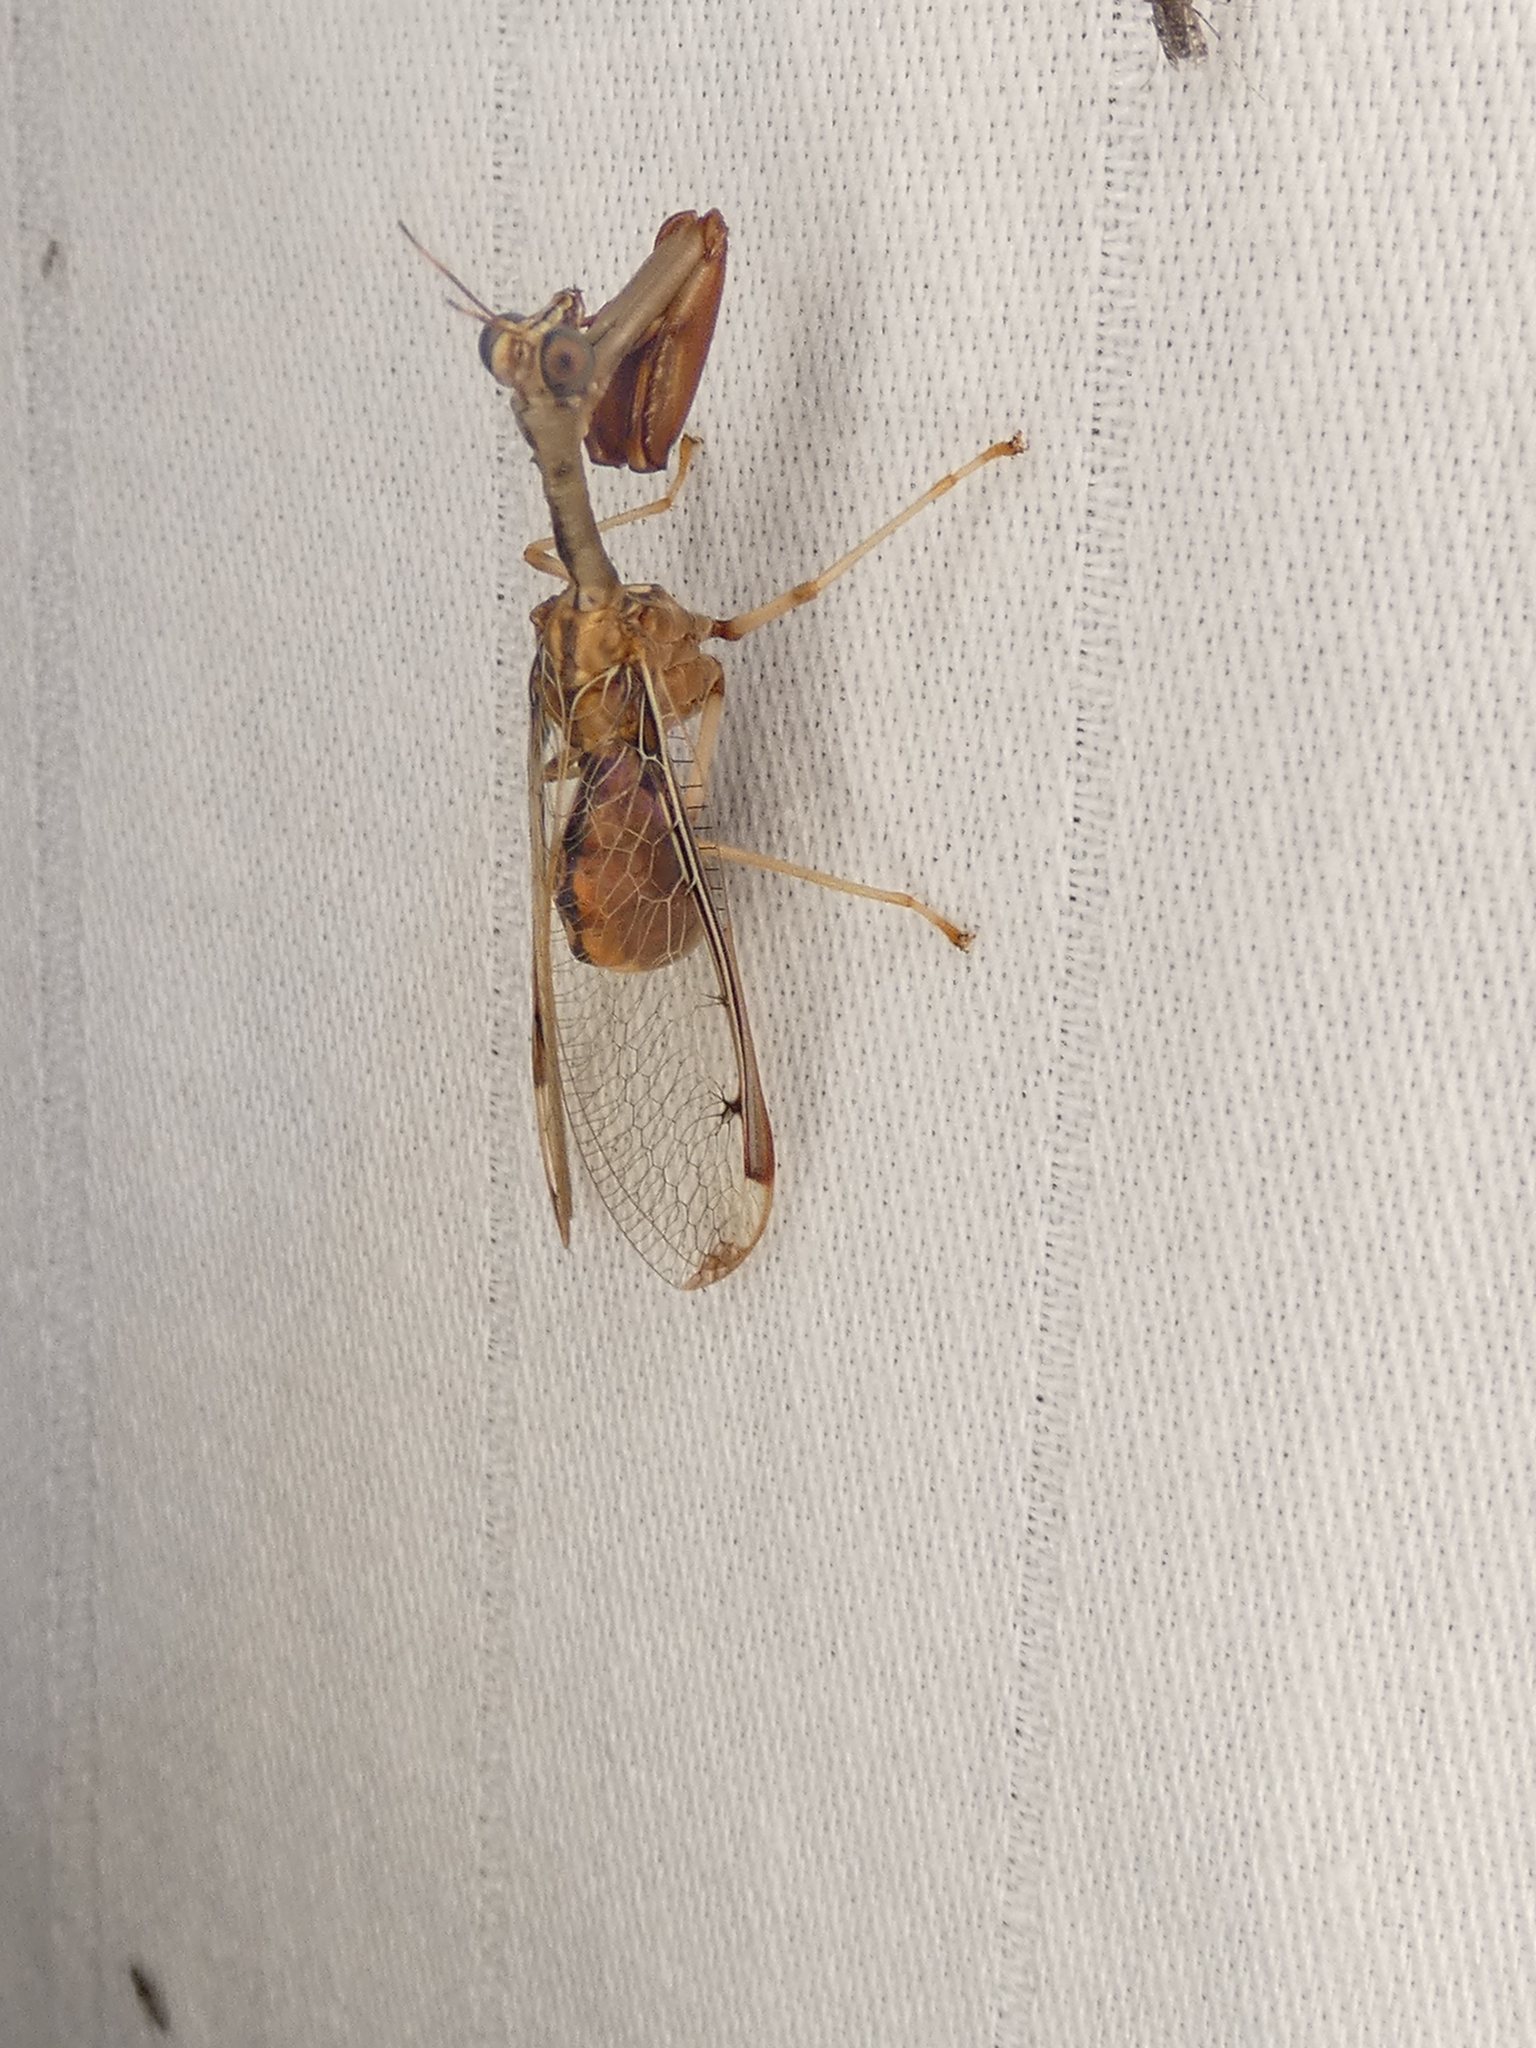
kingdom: Animalia
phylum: Arthropoda
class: Insecta
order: Neuroptera
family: Mantispidae
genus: Dicromantispa
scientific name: Dicromantispa interrupta
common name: Four-spotted mantidfly
